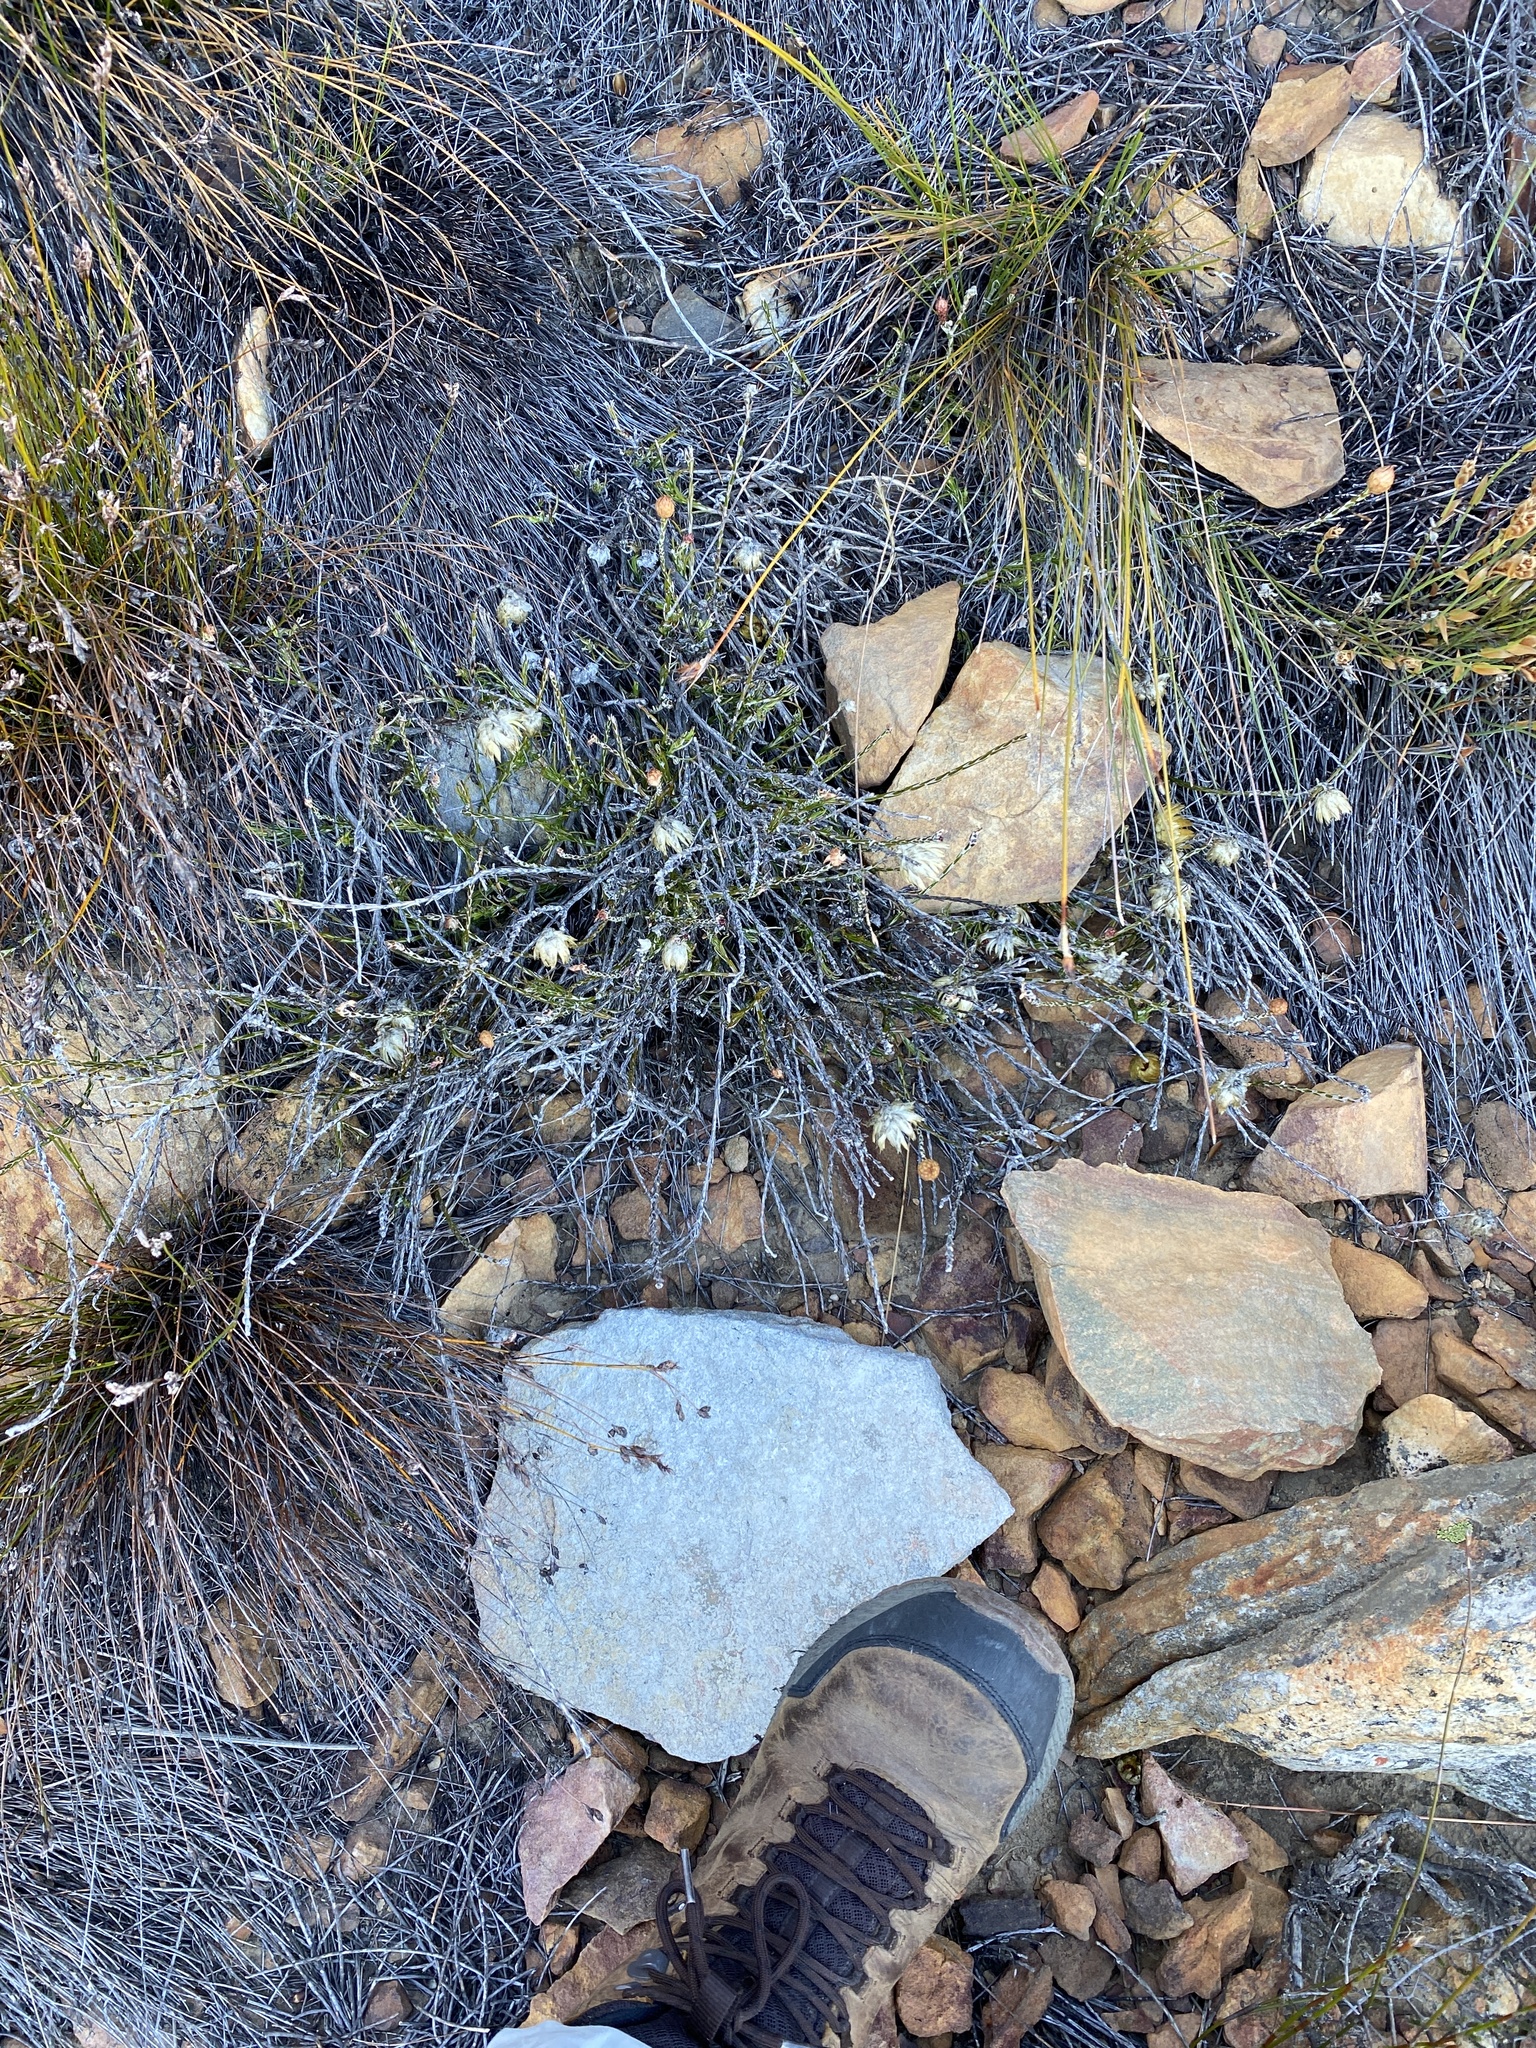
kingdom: Plantae
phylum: Tracheophyta
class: Magnoliopsida
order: Asterales
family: Asteraceae
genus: Edmondia
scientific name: Edmondia fasciculata
